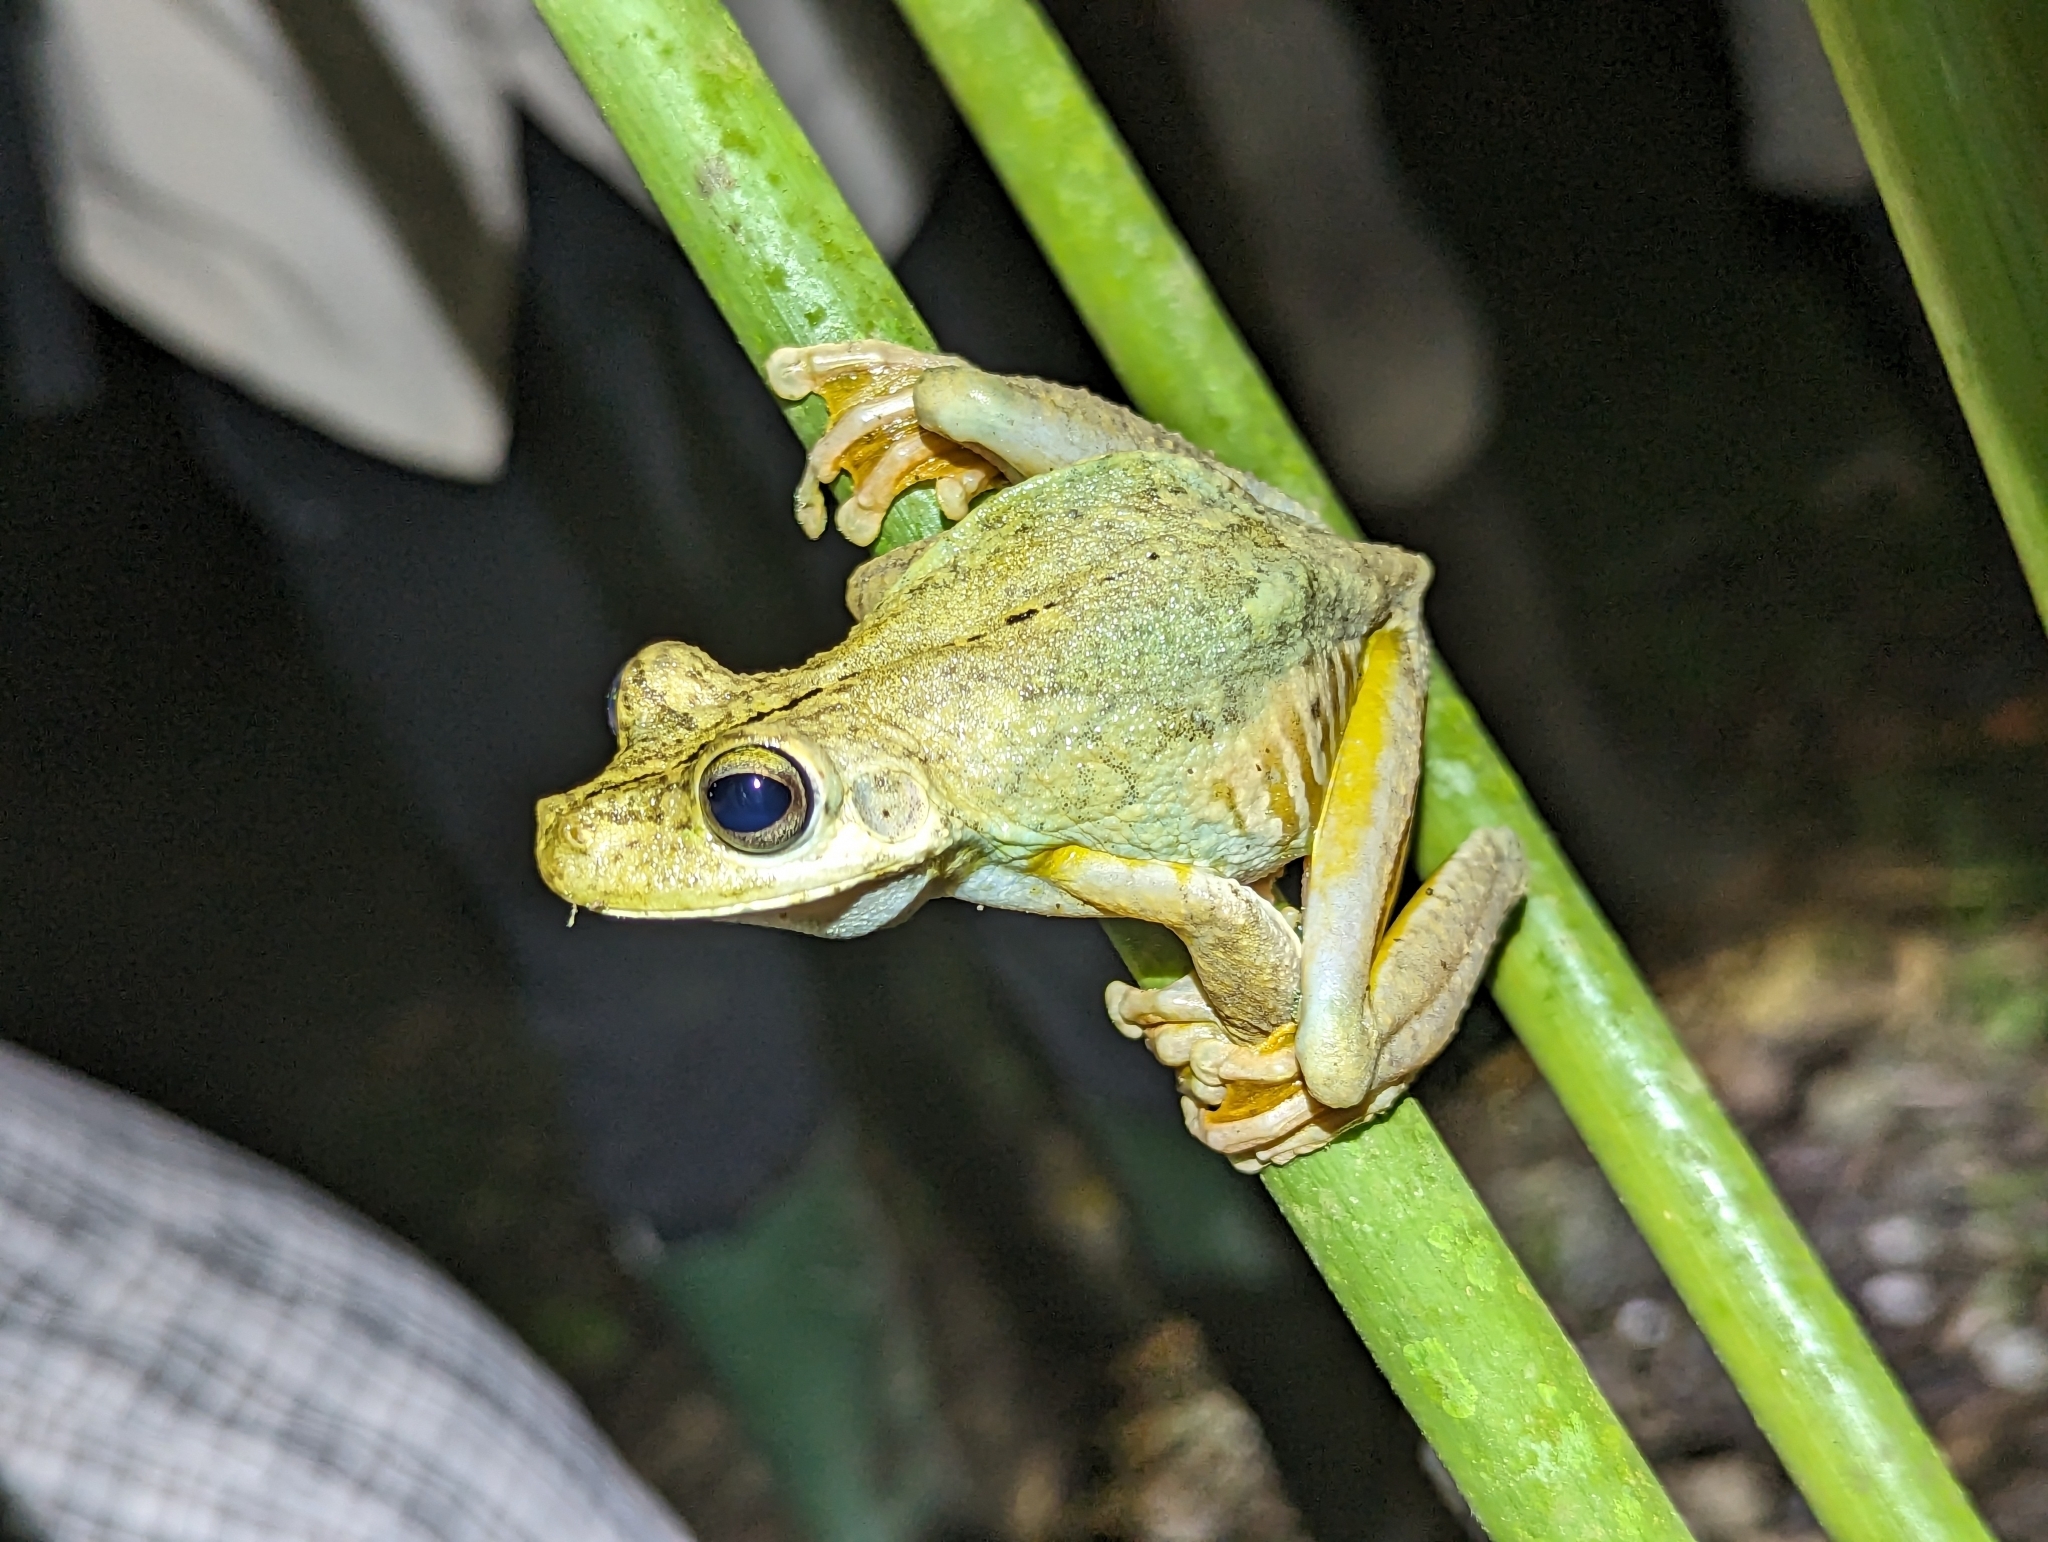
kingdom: Animalia
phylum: Chordata
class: Amphibia
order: Anura
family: Hylidae
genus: Boana
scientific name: Boana rosenbergi
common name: Rosenberg´s gladiator treefrog
